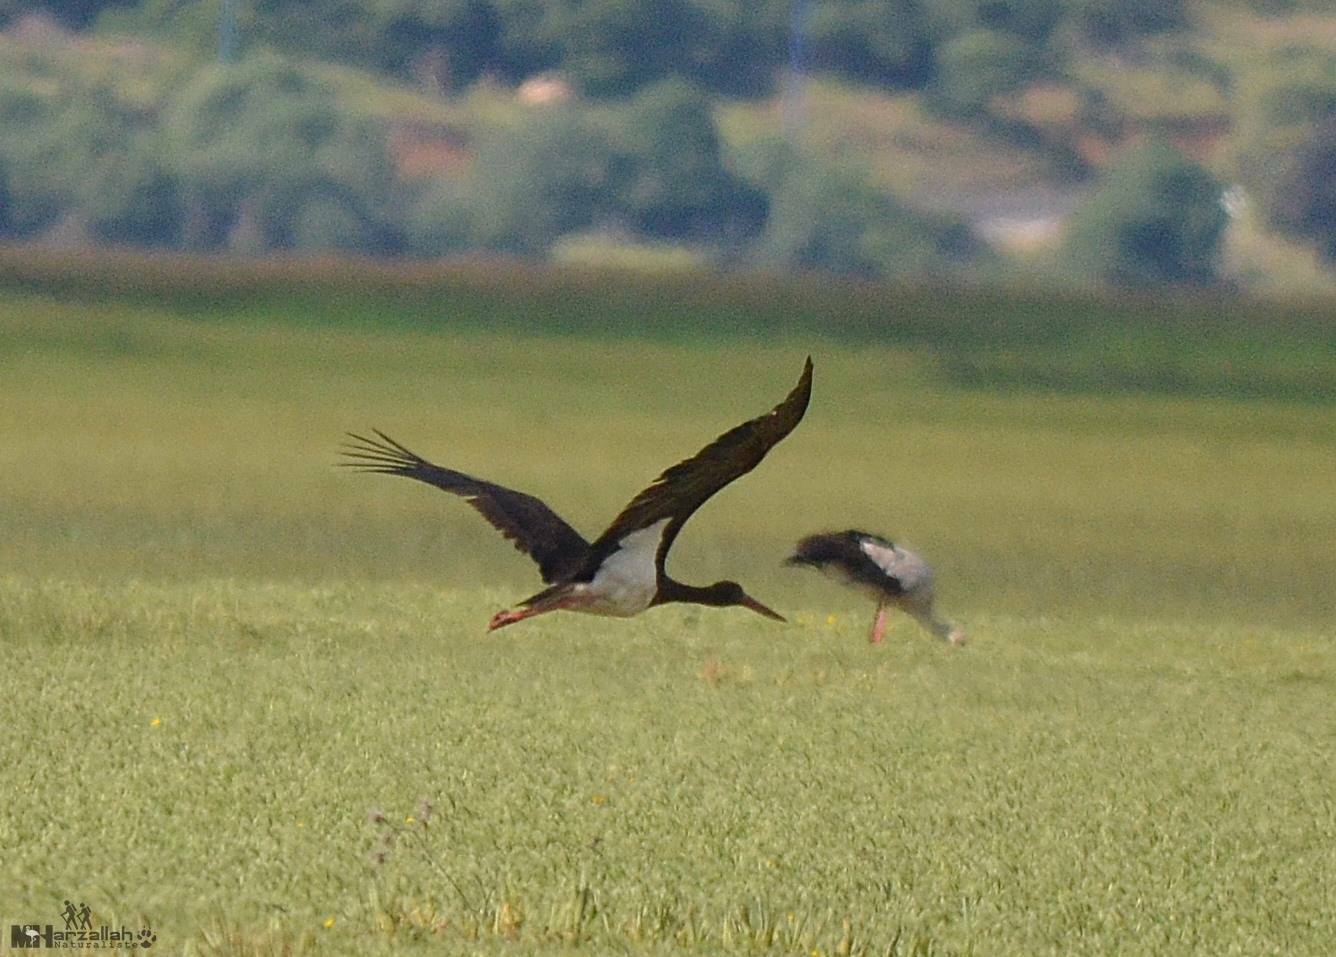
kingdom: Animalia
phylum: Chordata
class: Aves
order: Ciconiiformes
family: Ciconiidae
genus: Ciconia
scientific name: Ciconia nigra
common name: Black stork
